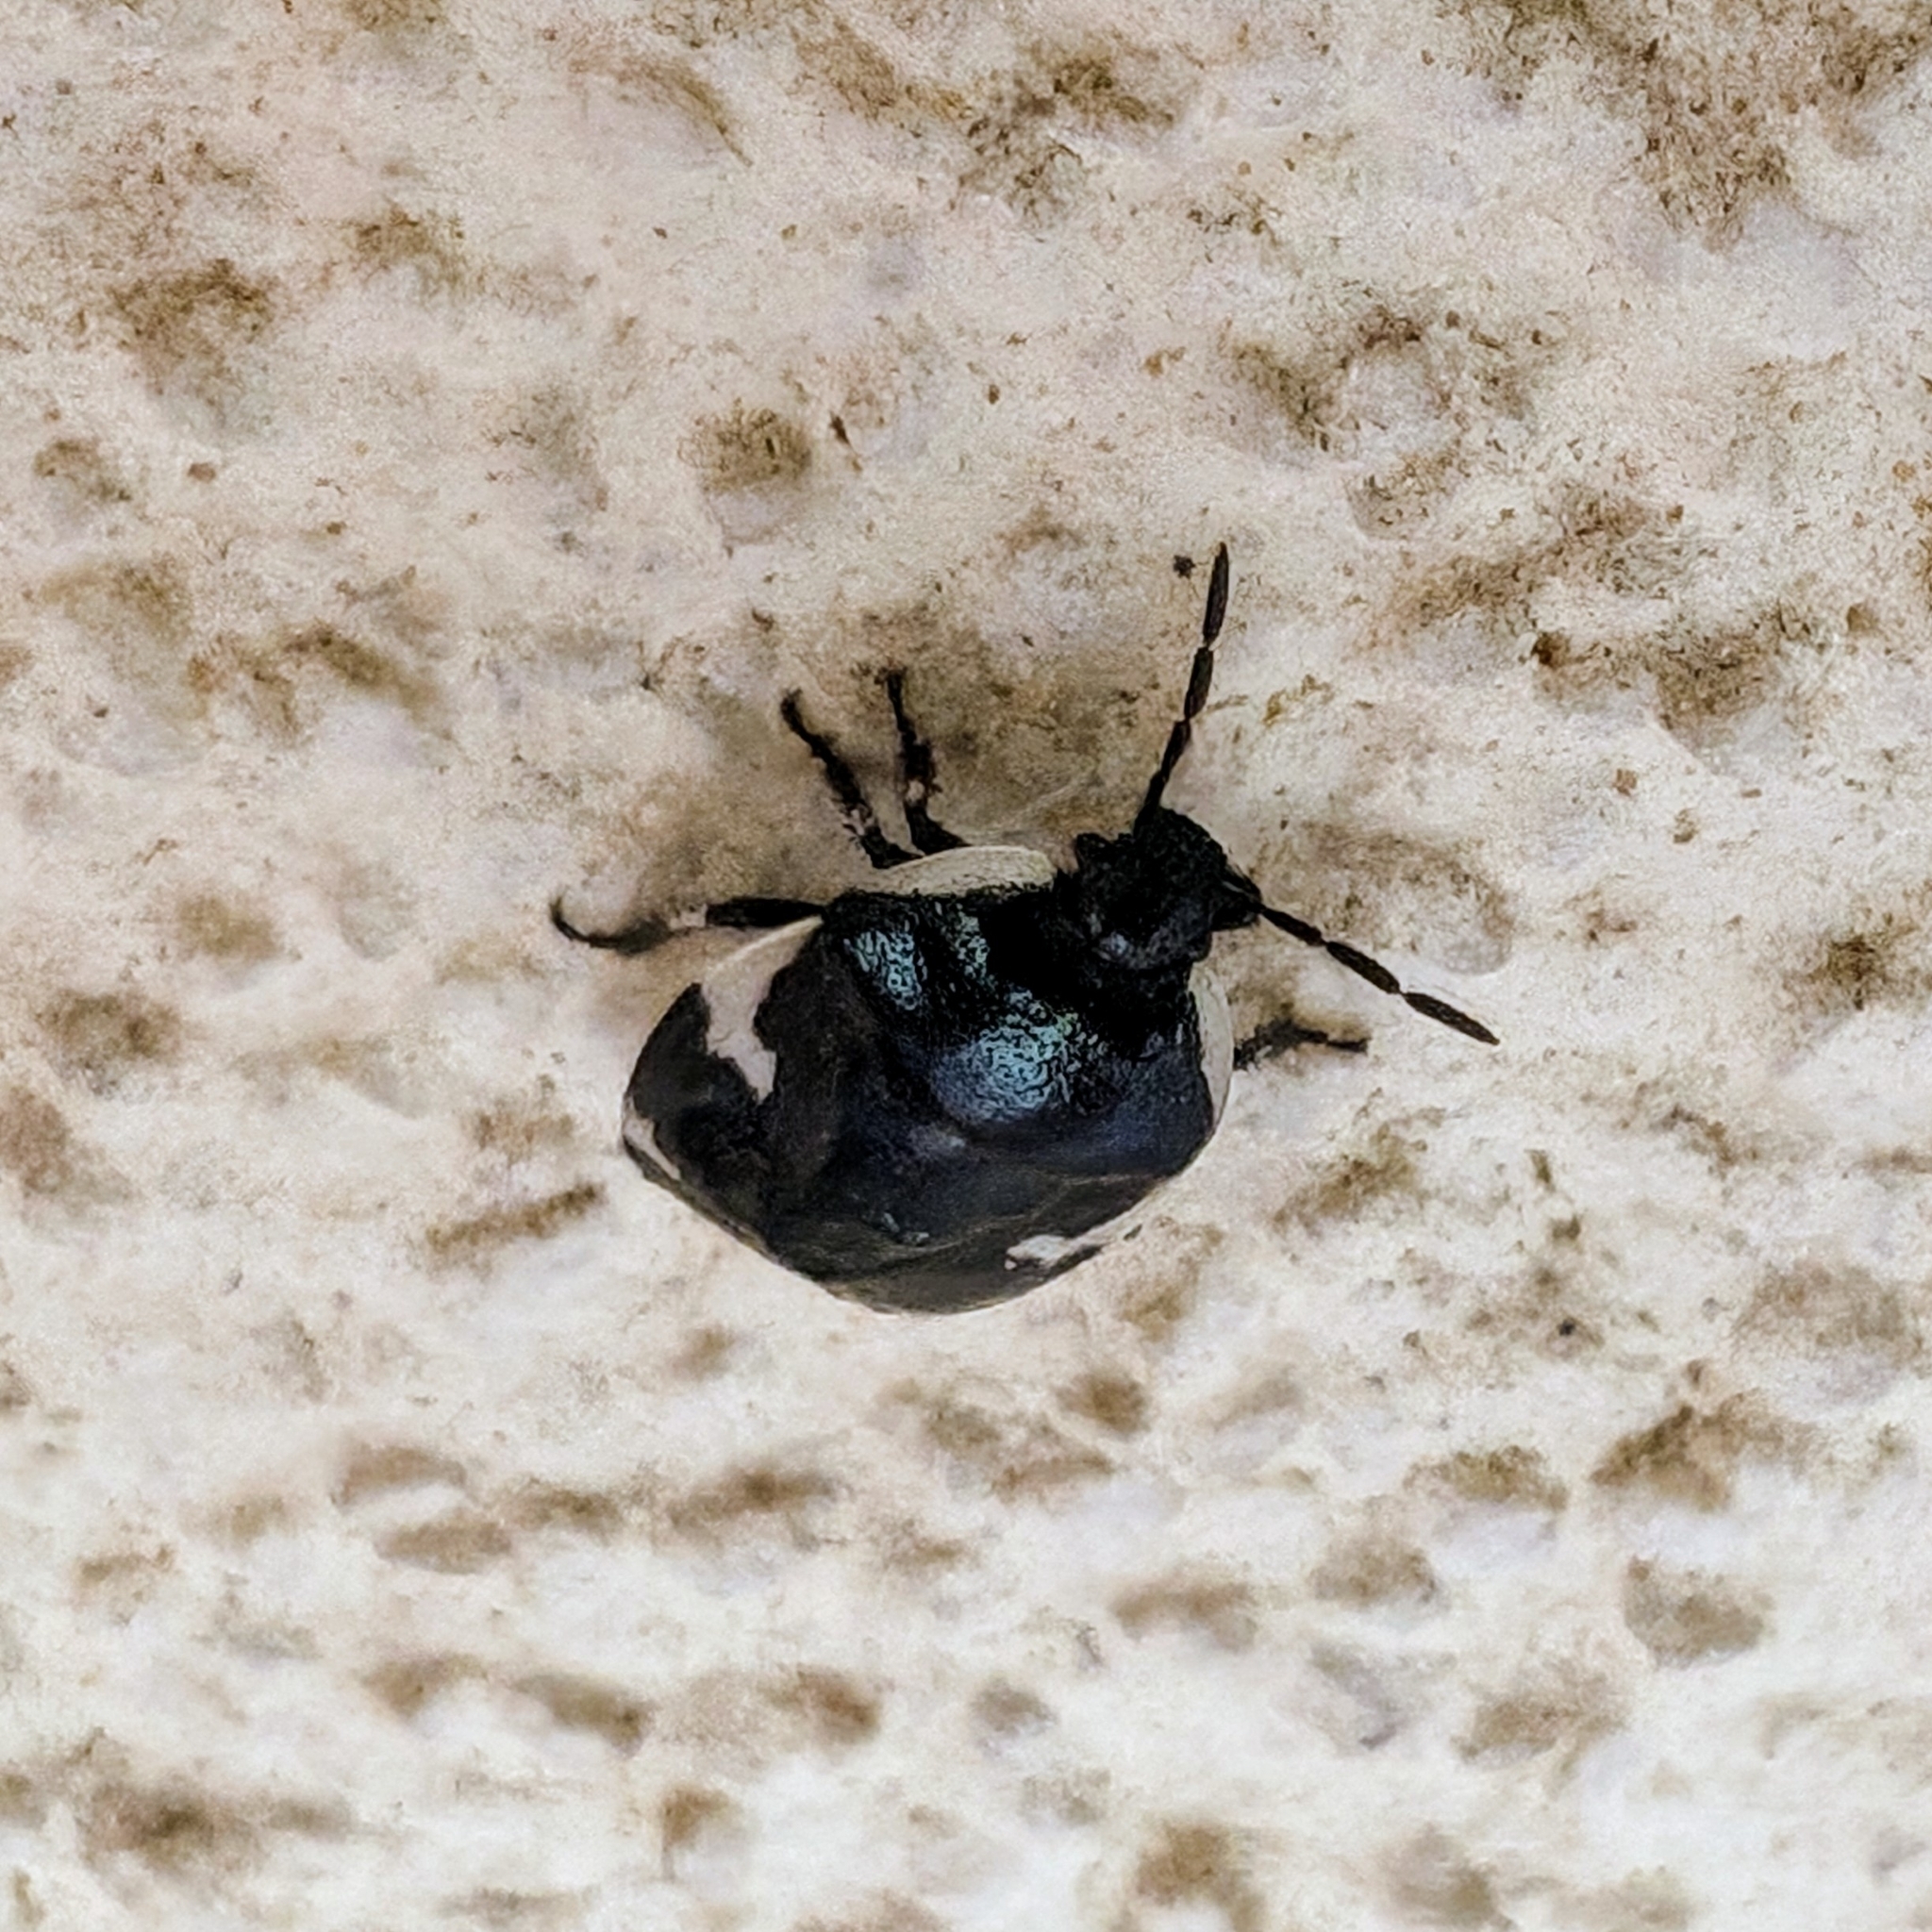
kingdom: Animalia
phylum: Arthropoda
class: Insecta
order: Hemiptera
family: Cydnidae
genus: Tritomegas
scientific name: Tritomegas sexmaculatus
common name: Rambur's pied shieldbug
